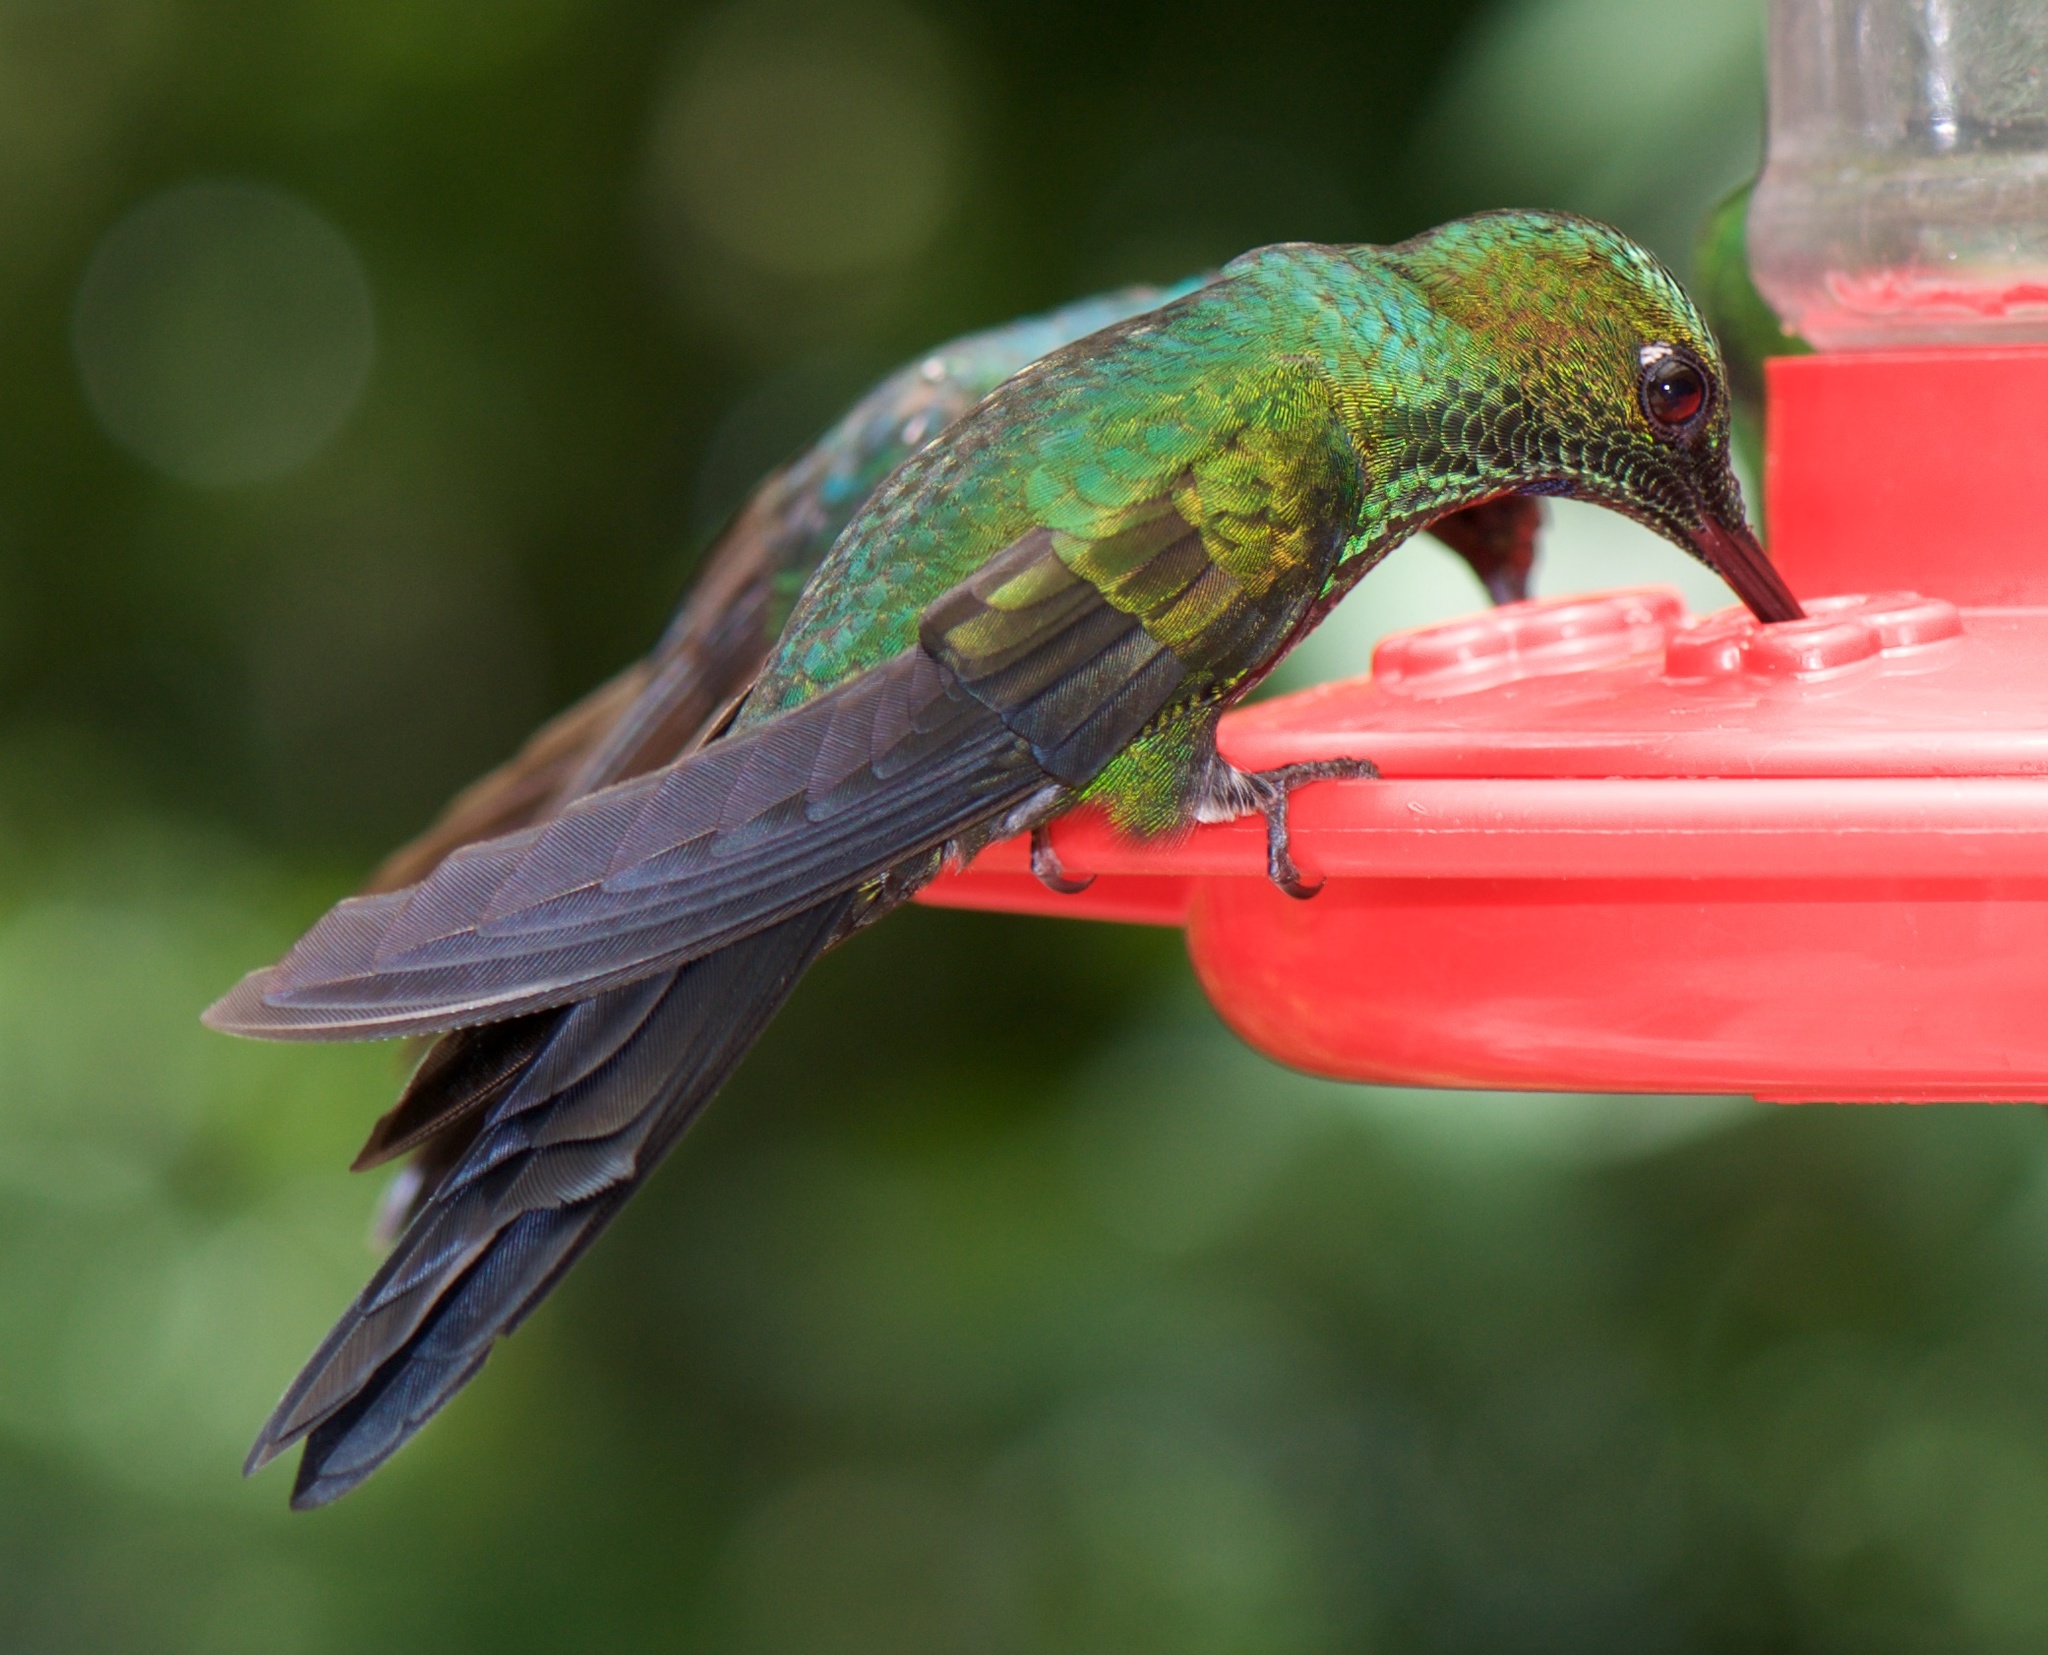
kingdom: Animalia
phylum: Chordata
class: Aves
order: Apodiformes
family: Trochilidae
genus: Heliodoxa
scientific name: Heliodoxa jacula
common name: Green-crowned brilliant
